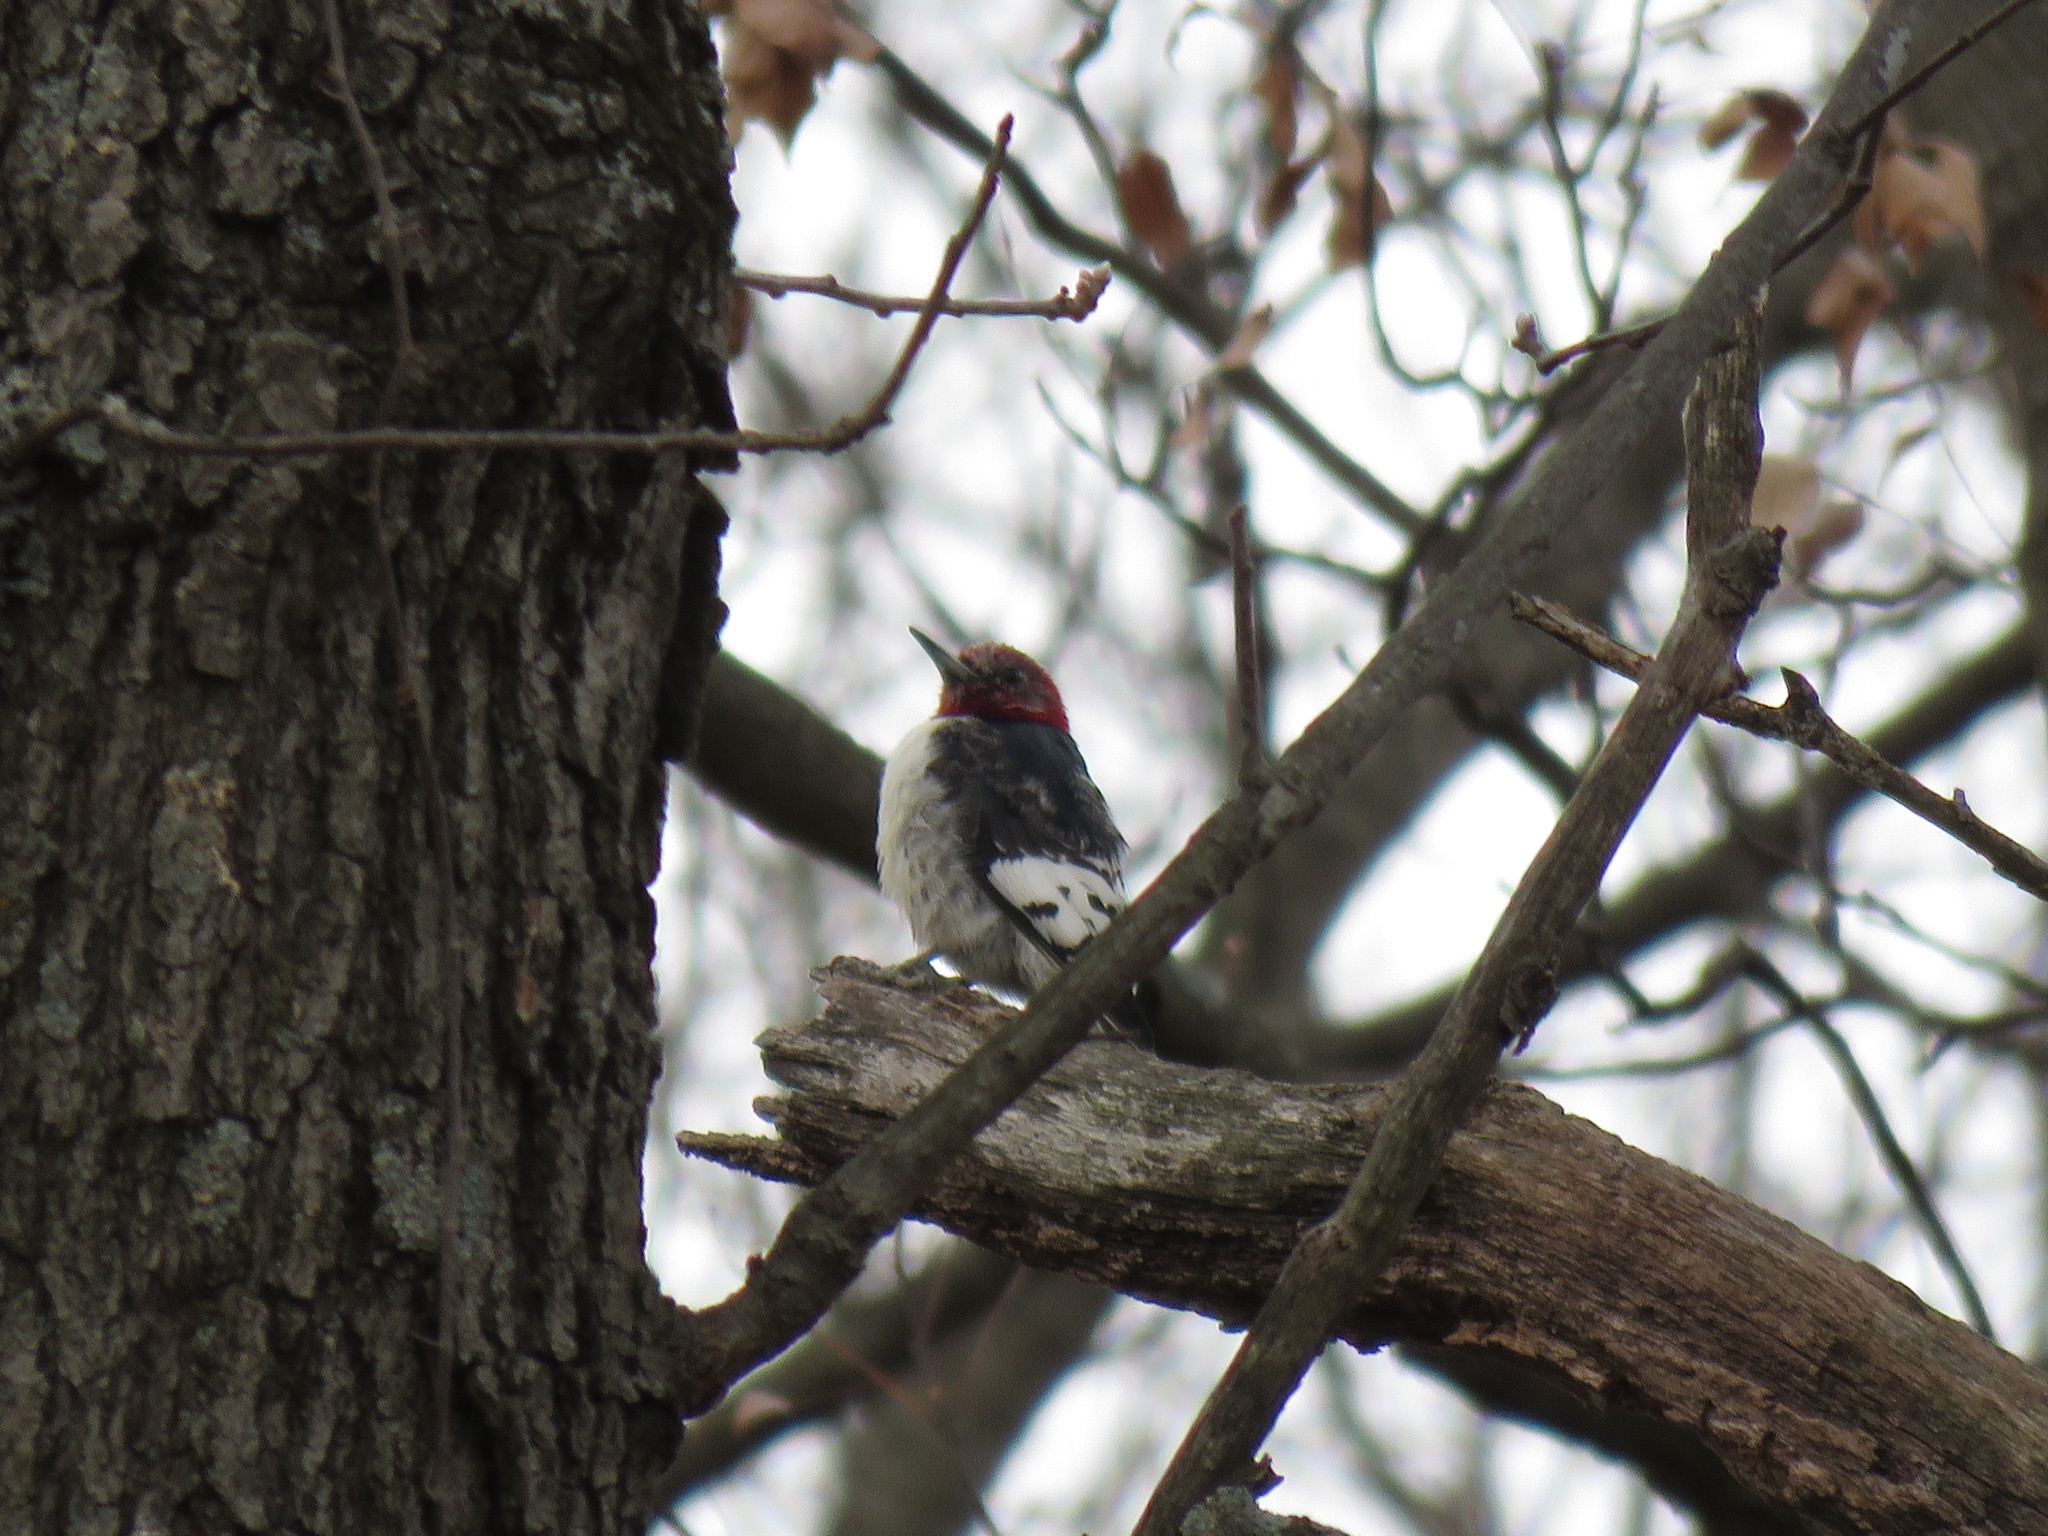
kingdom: Animalia
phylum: Chordata
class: Aves
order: Piciformes
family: Picidae
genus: Melanerpes
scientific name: Melanerpes erythrocephalus
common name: Red-headed woodpecker
